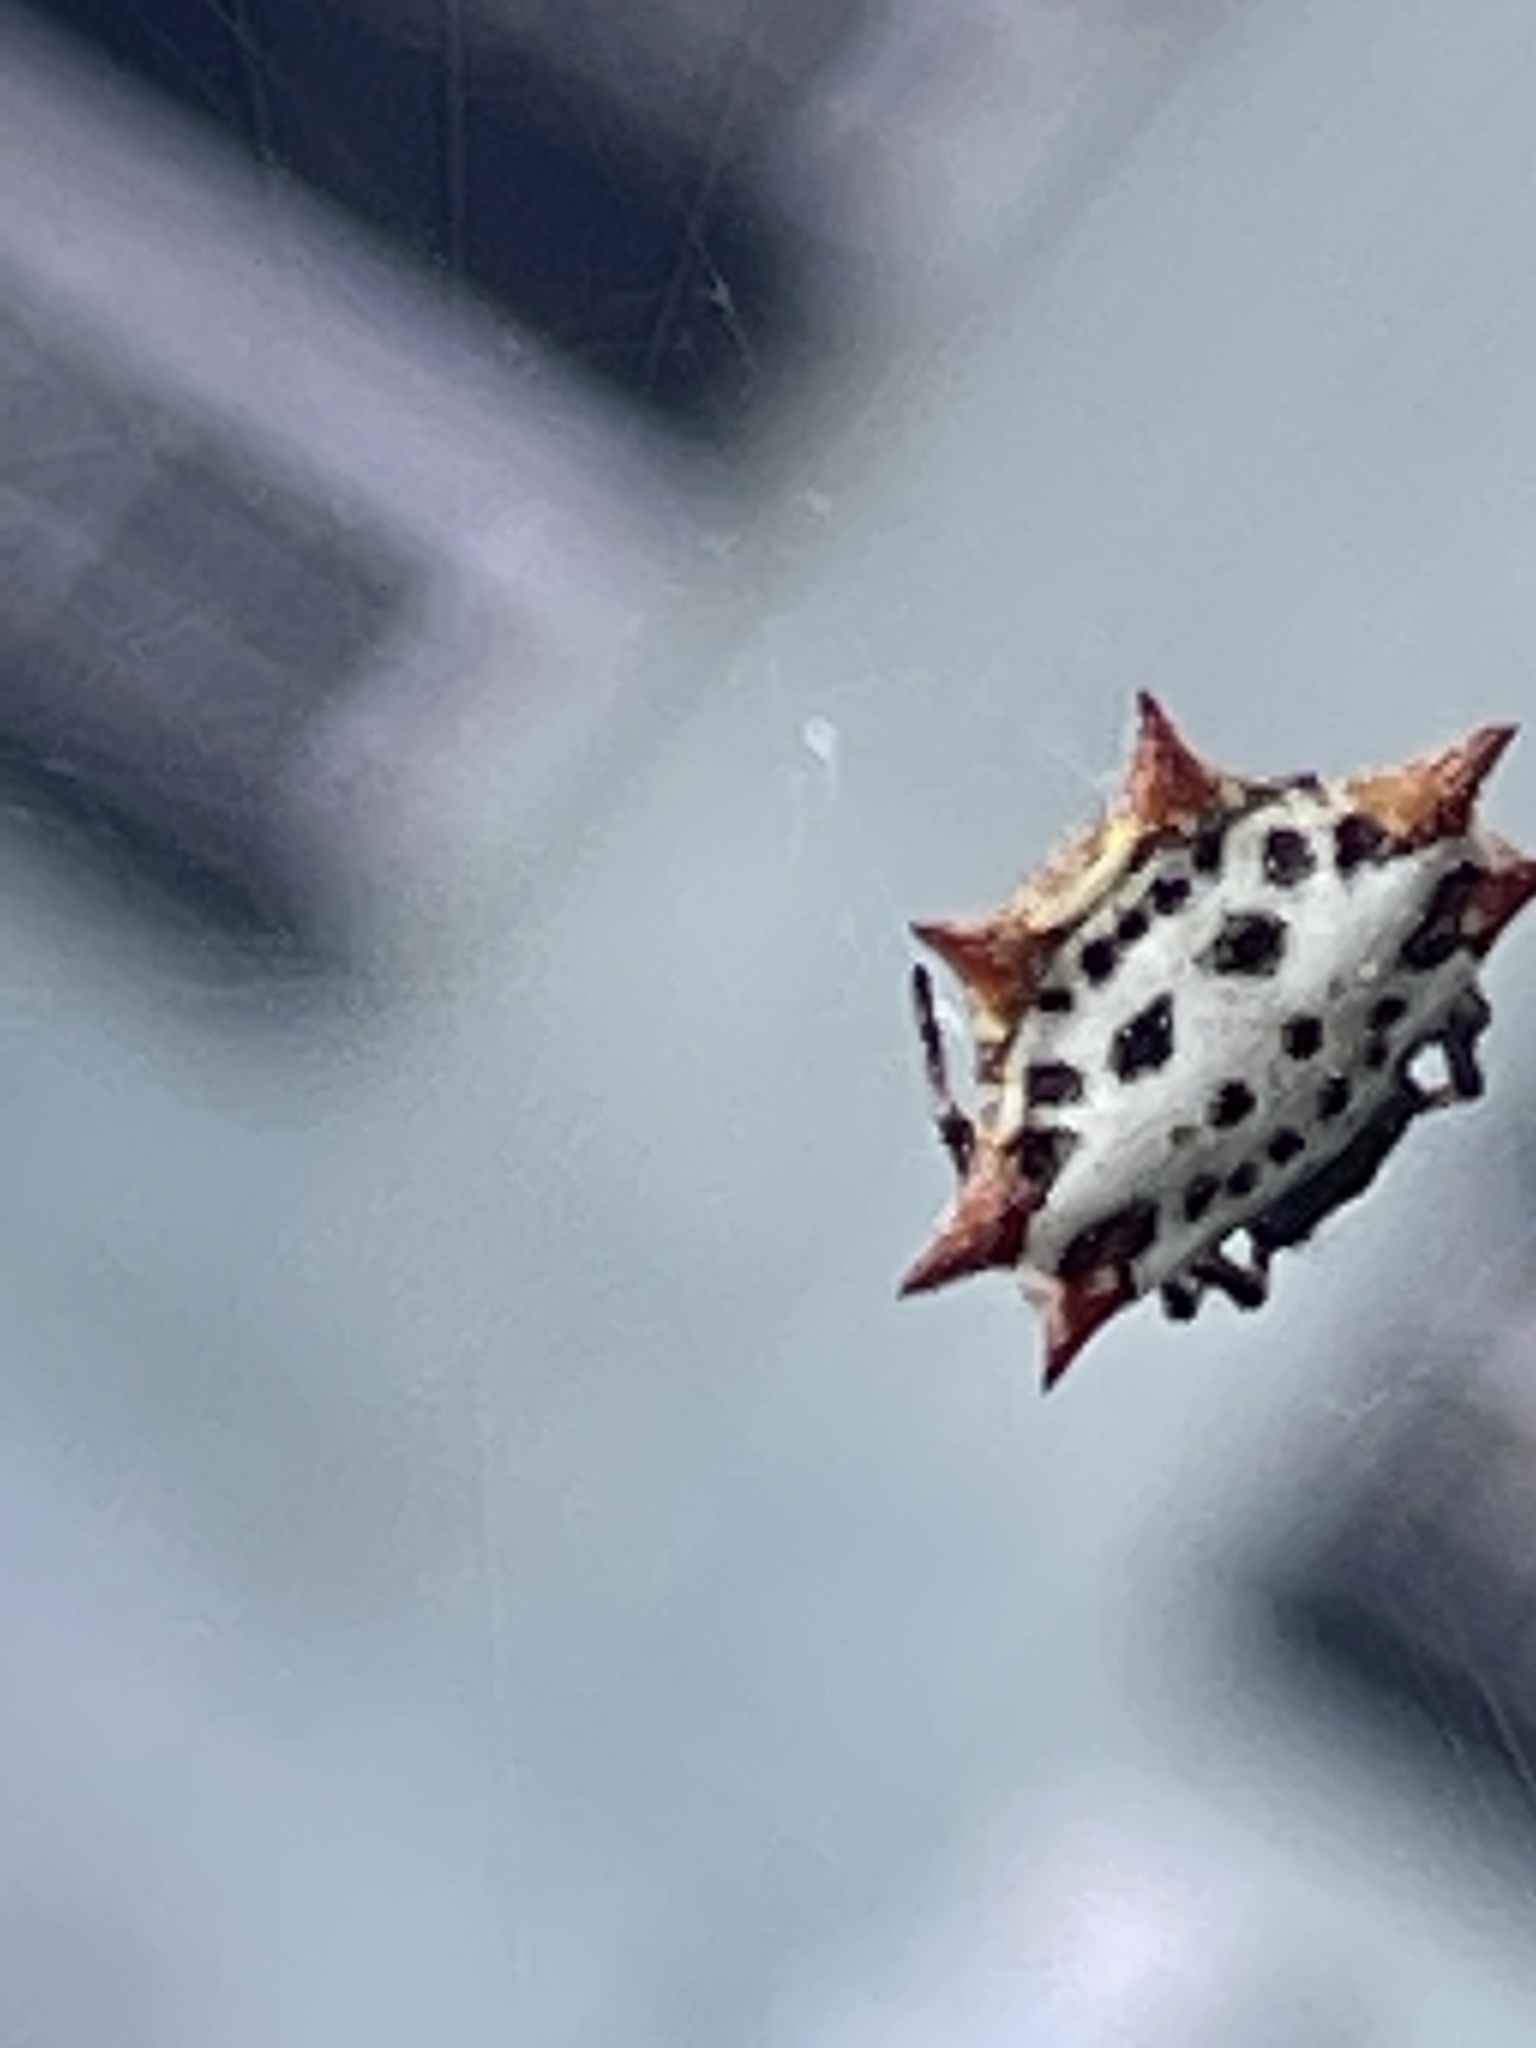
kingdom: Animalia
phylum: Arthropoda
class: Arachnida
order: Araneae
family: Araneidae
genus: Gasteracantha
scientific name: Gasteracantha cancriformis
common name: Orb weavers
